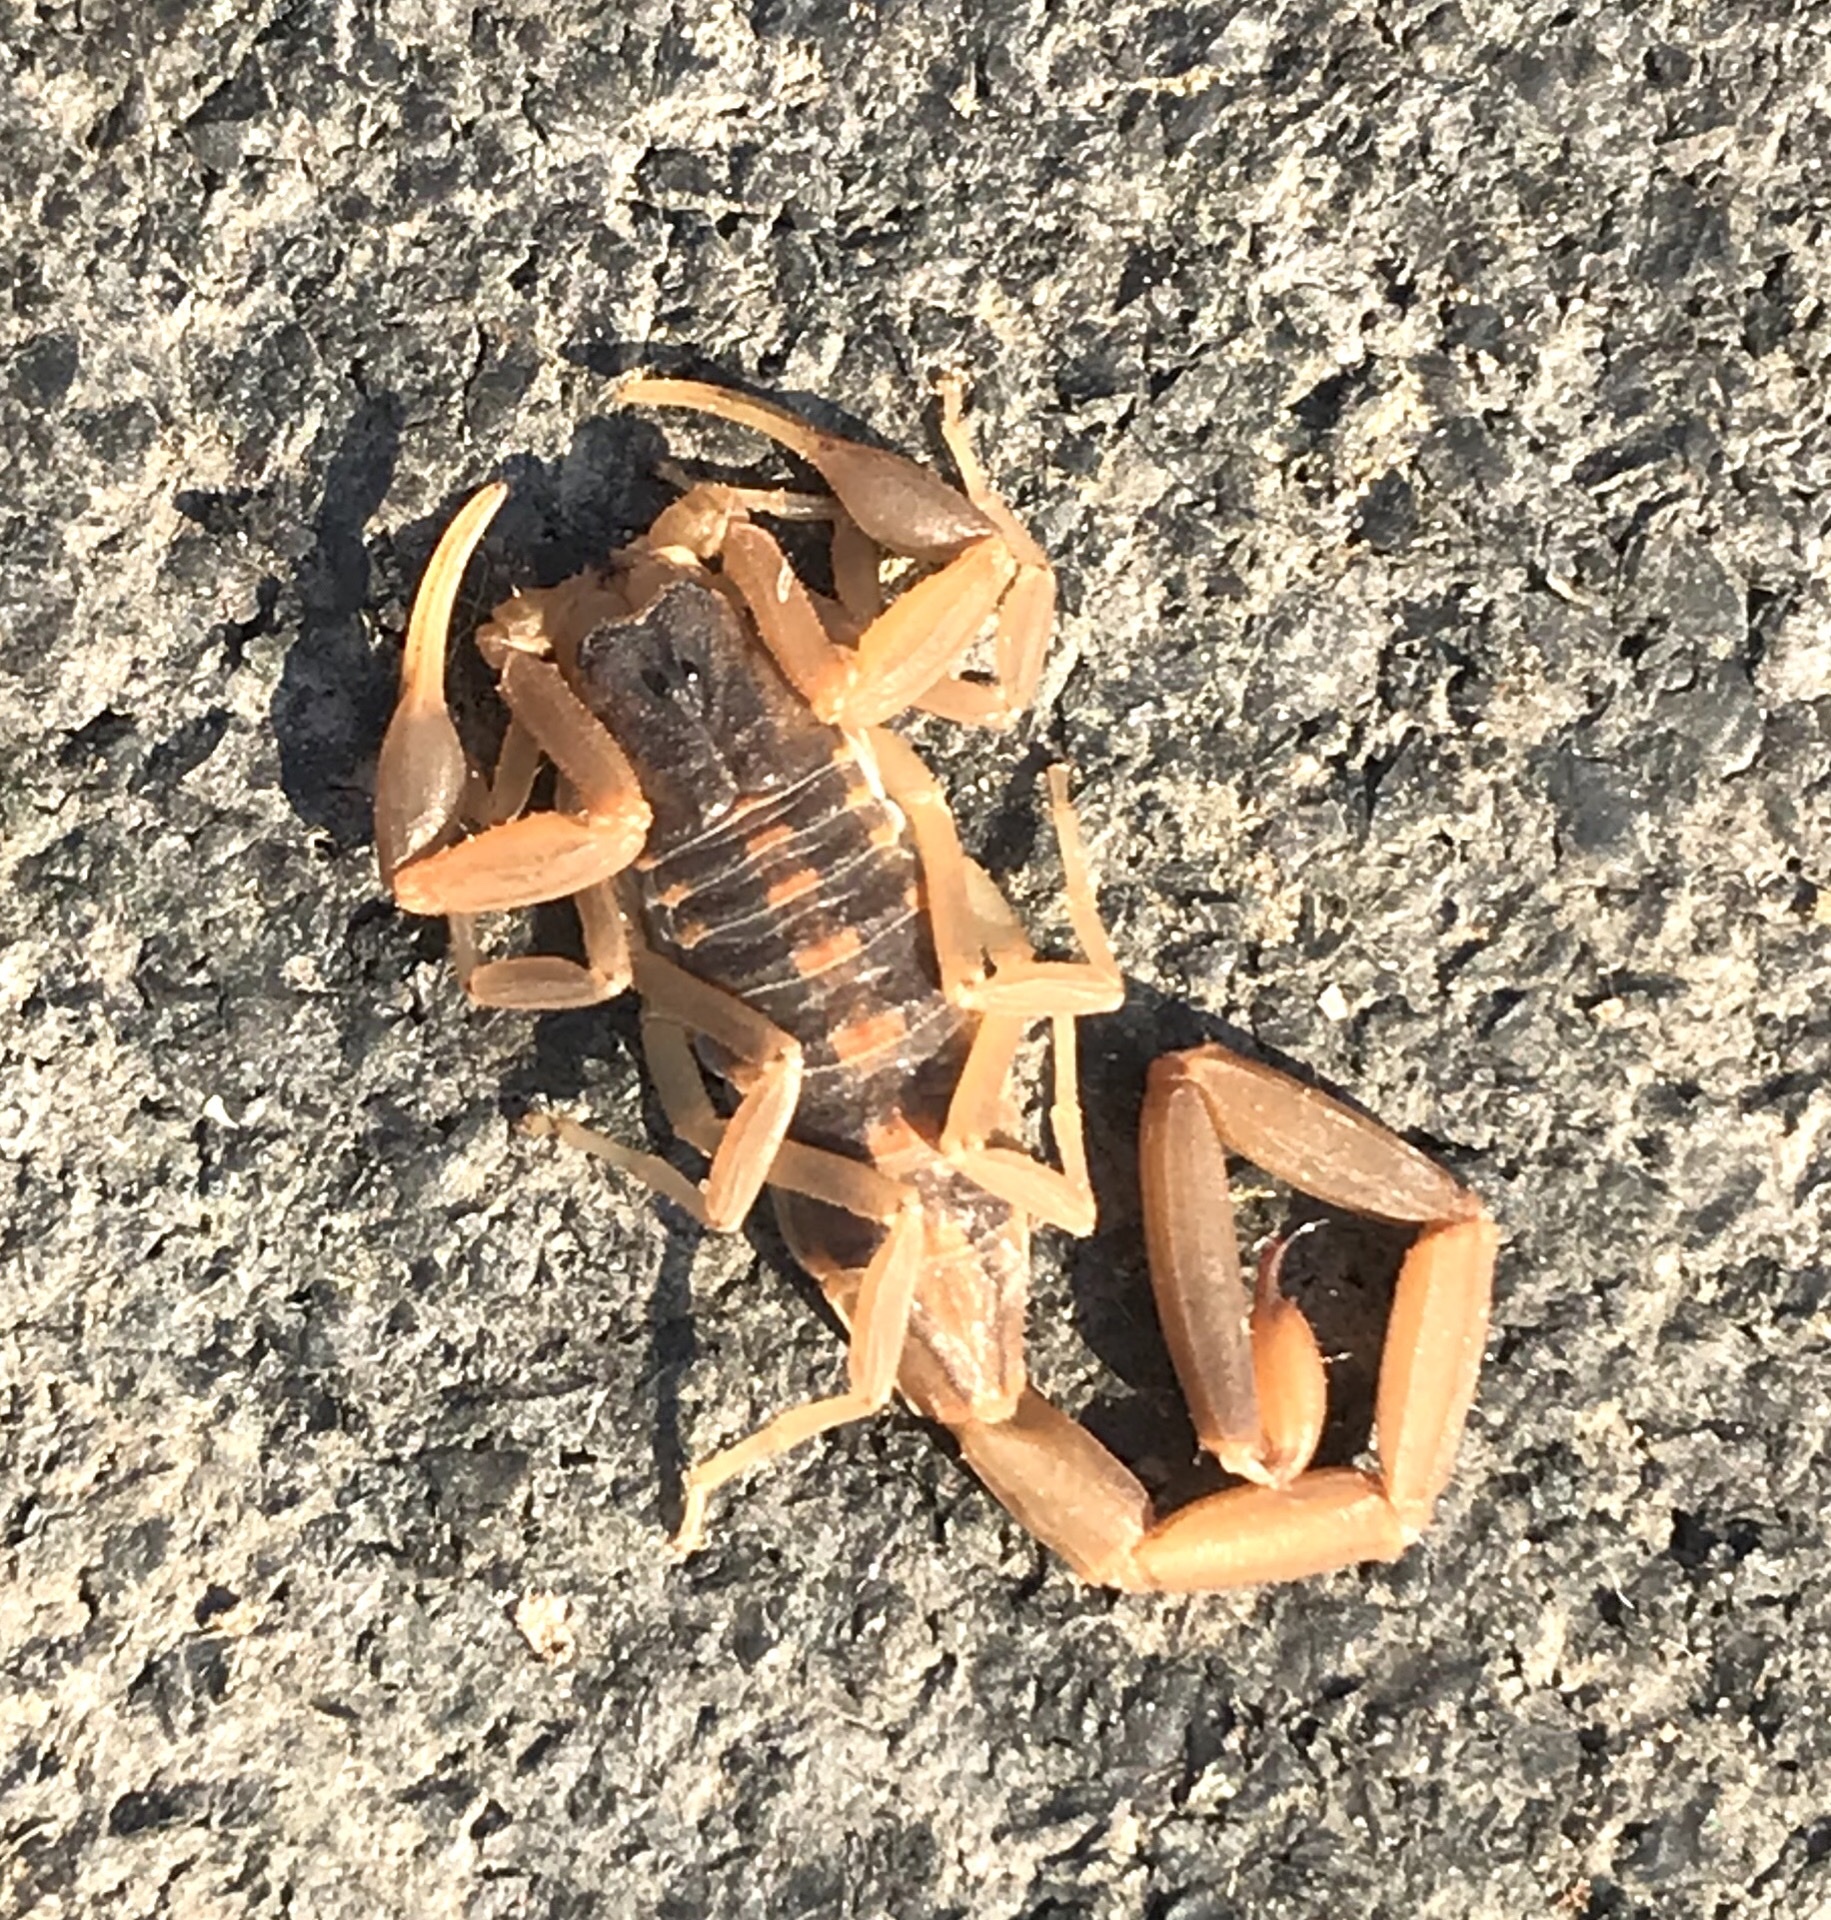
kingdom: Animalia
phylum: Arthropoda
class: Arachnida
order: Scorpiones
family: Buthidae
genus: Centruroides
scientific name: Centruroides vittatus
